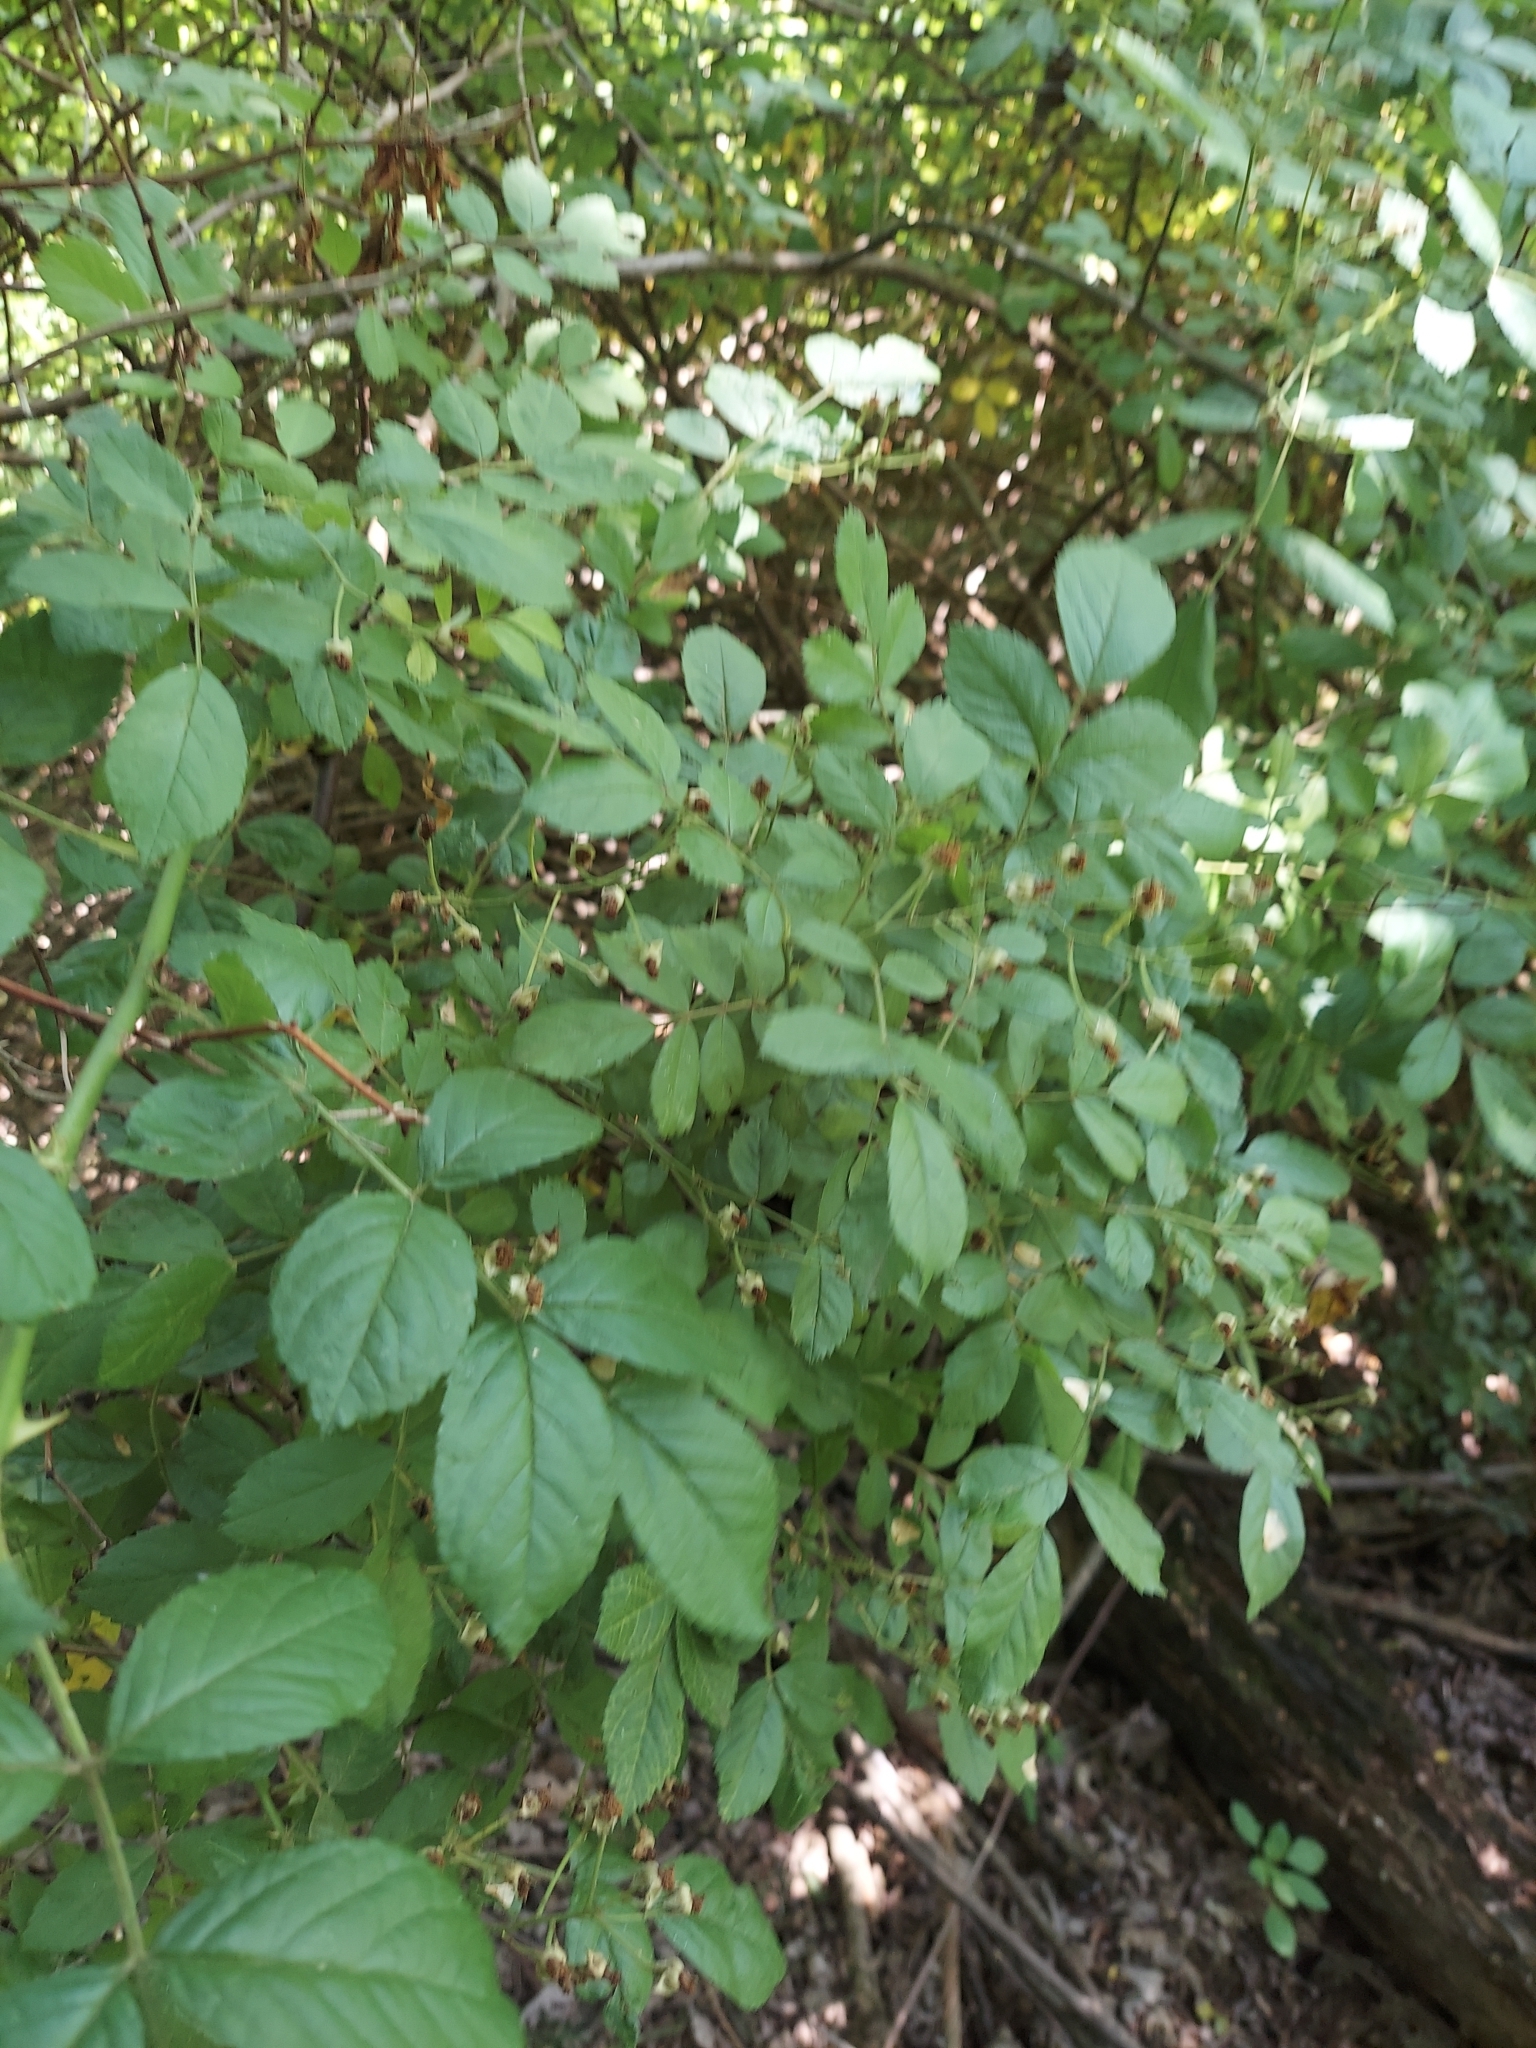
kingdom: Plantae
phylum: Tracheophyta
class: Magnoliopsida
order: Rosales
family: Rosaceae
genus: Rosa
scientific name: Rosa multiflora
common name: Multiflora rose
